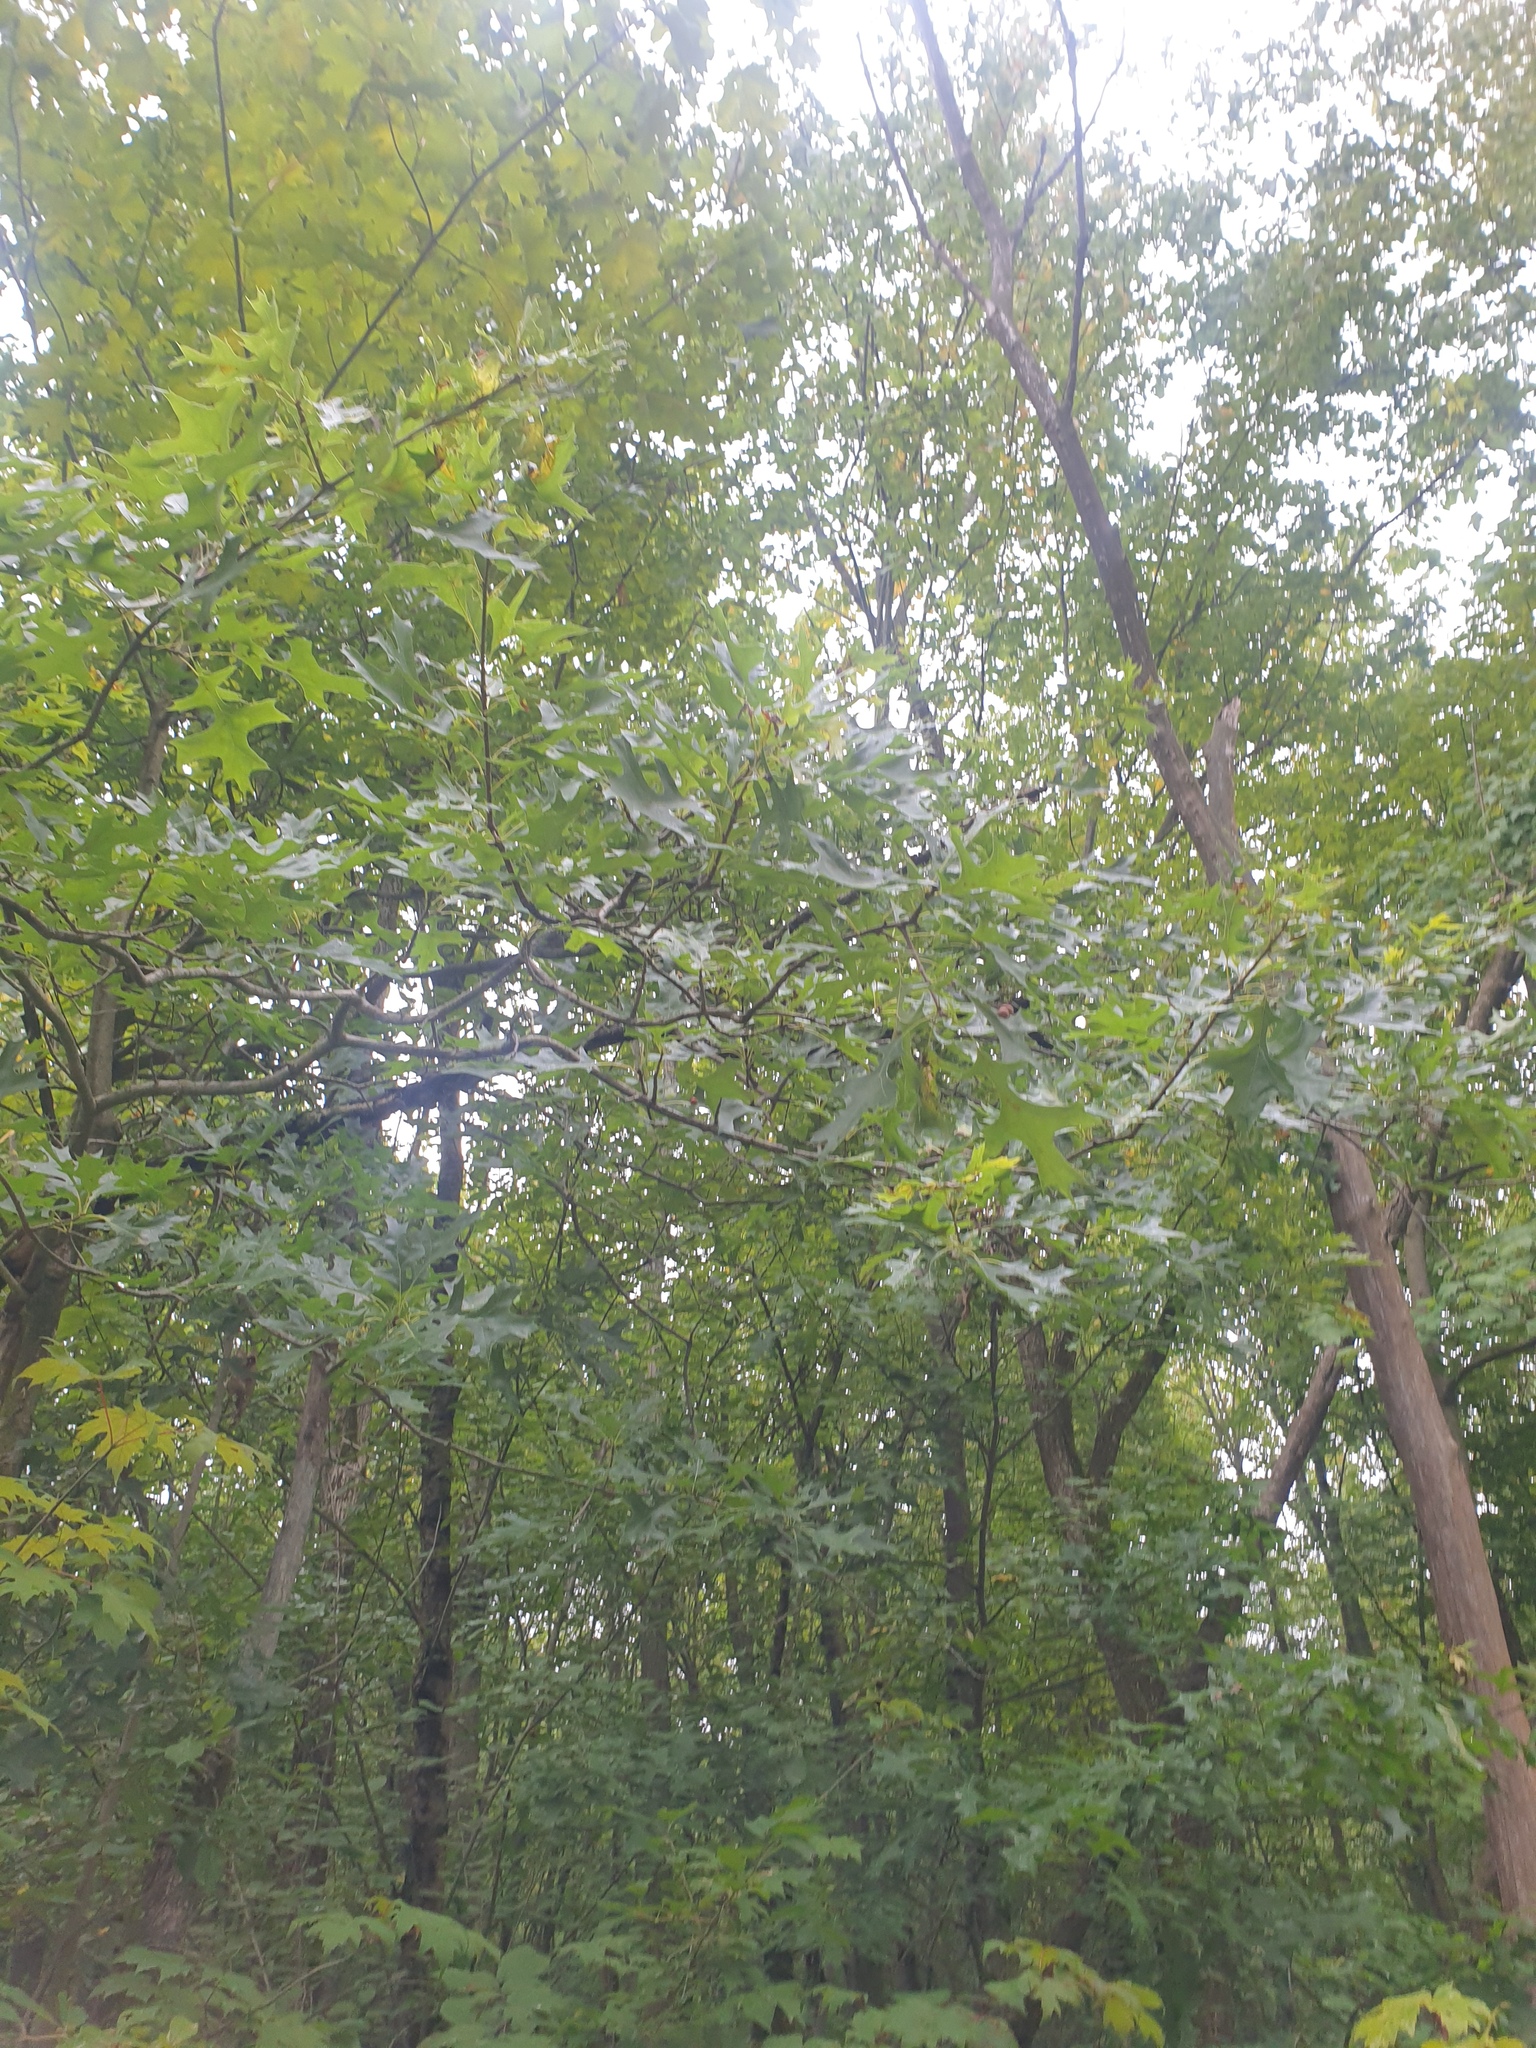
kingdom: Plantae
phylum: Tracheophyta
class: Magnoliopsida
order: Fagales
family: Fagaceae
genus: Quercus
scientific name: Quercus palustris
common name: Pin oak
